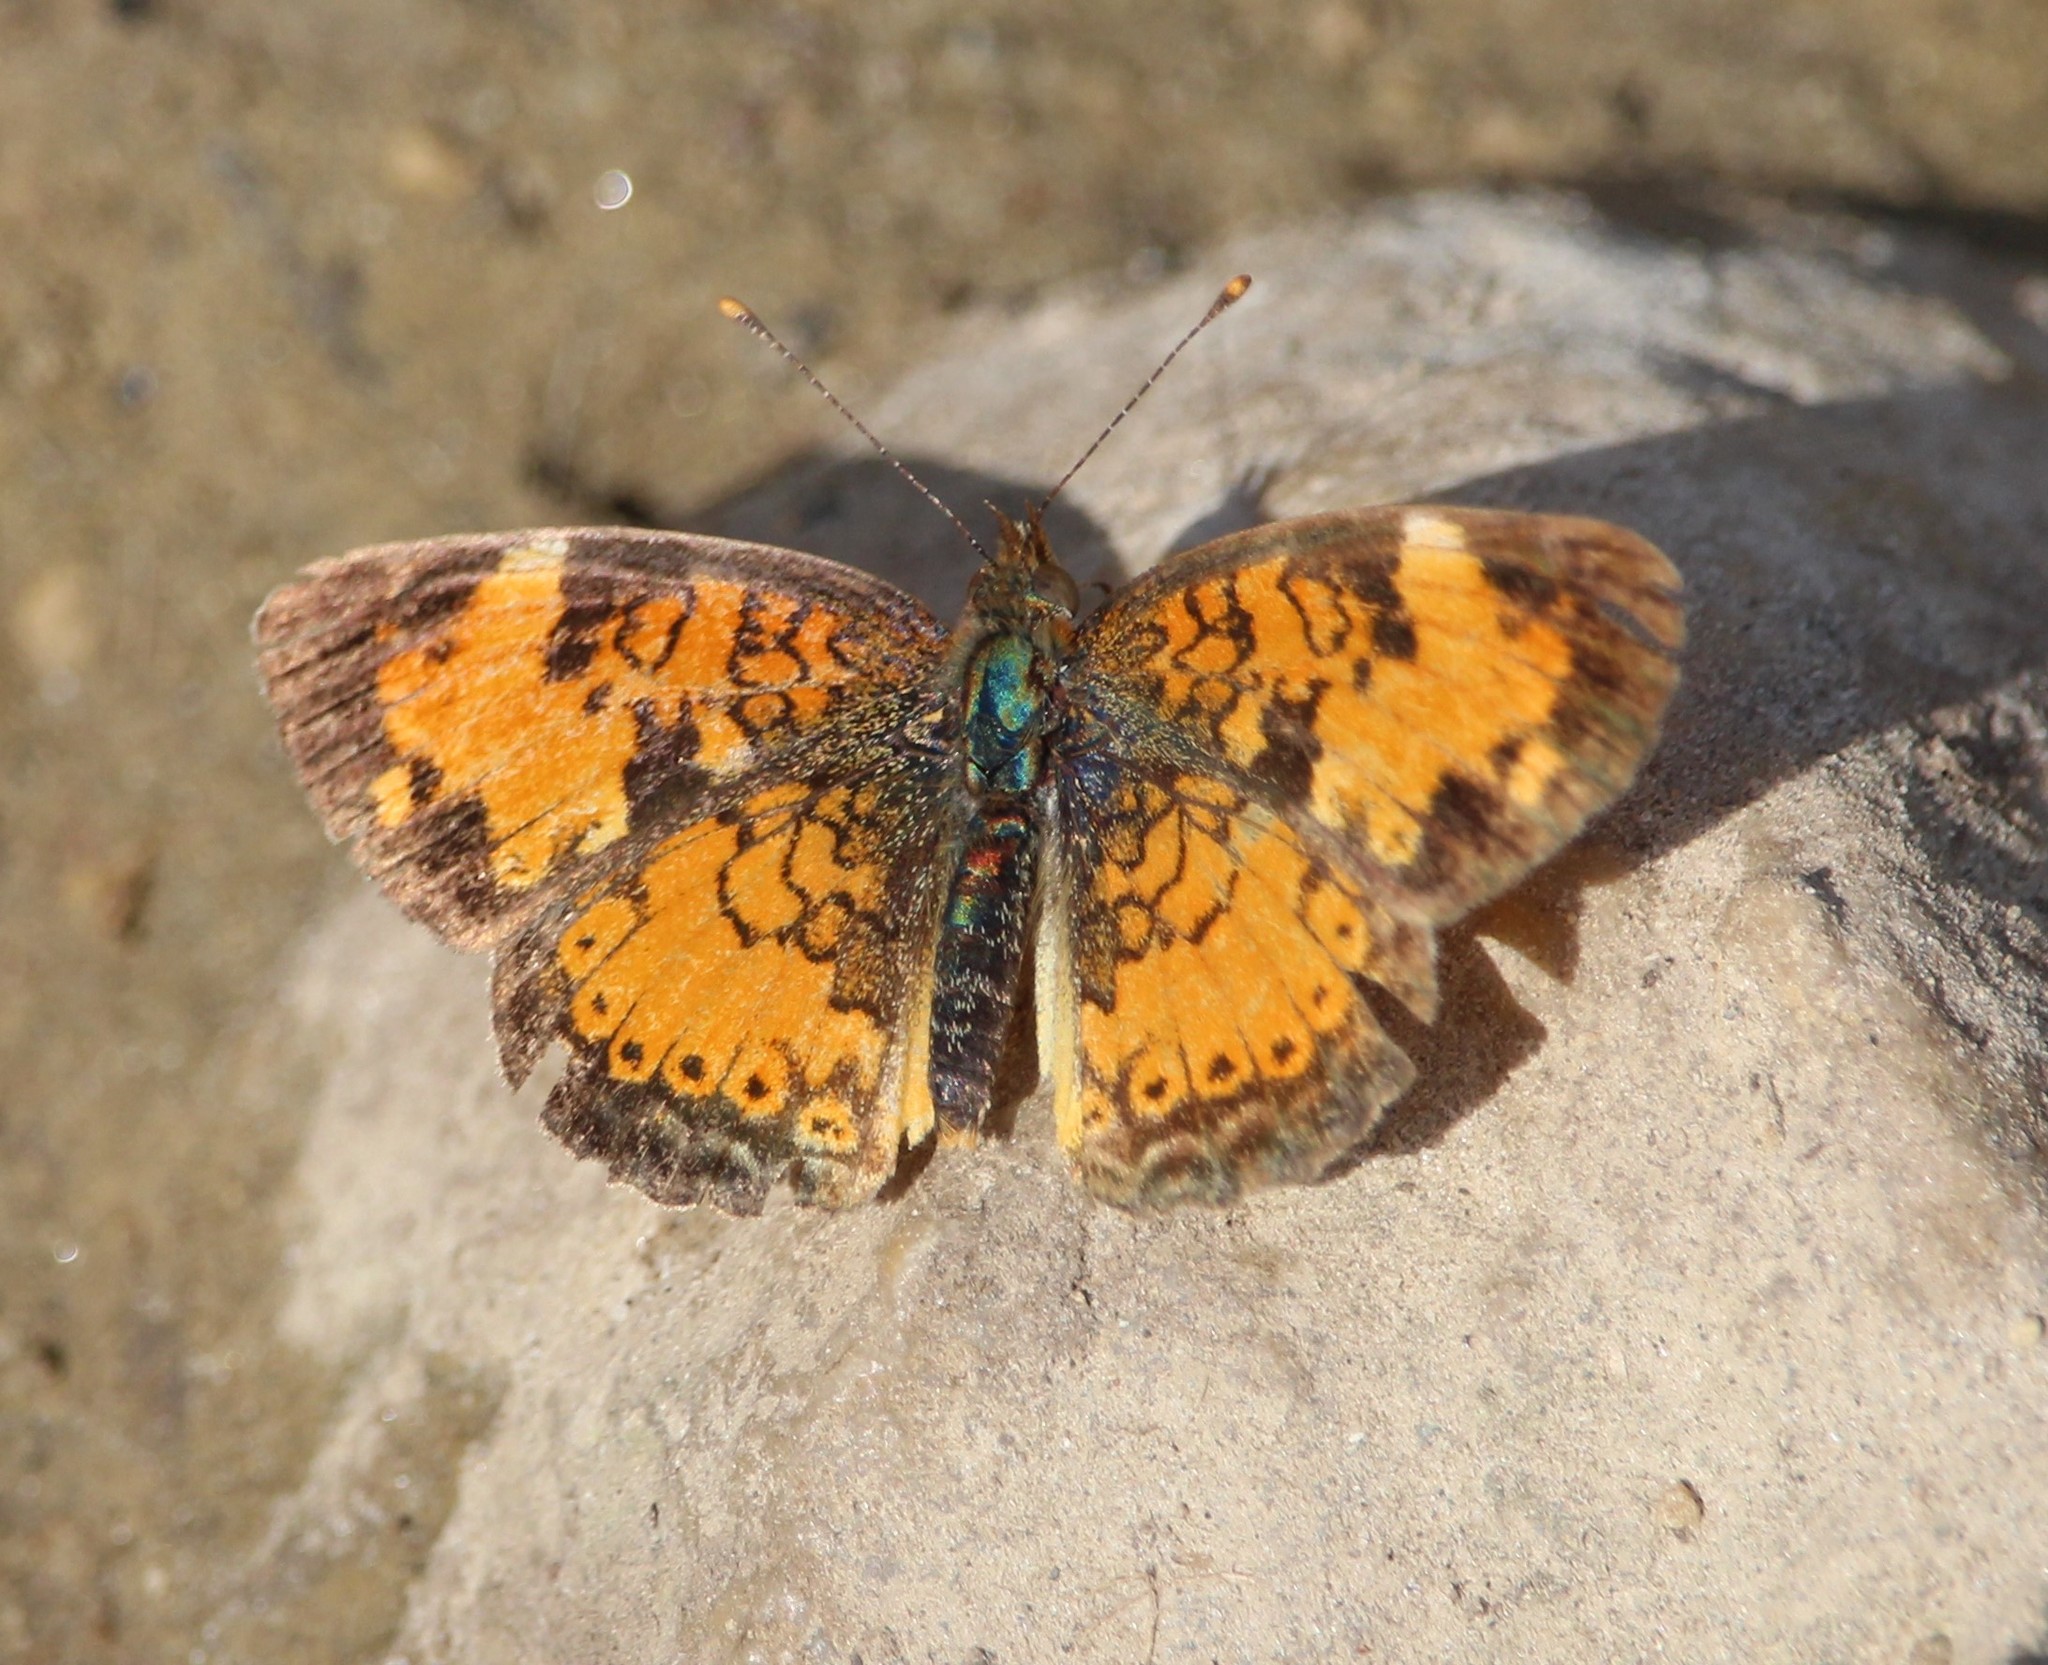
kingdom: Animalia
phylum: Arthropoda
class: Insecta
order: Lepidoptera
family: Nymphalidae
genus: Phyciodes
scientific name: Phyciodes tharos
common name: Pearl crescent
